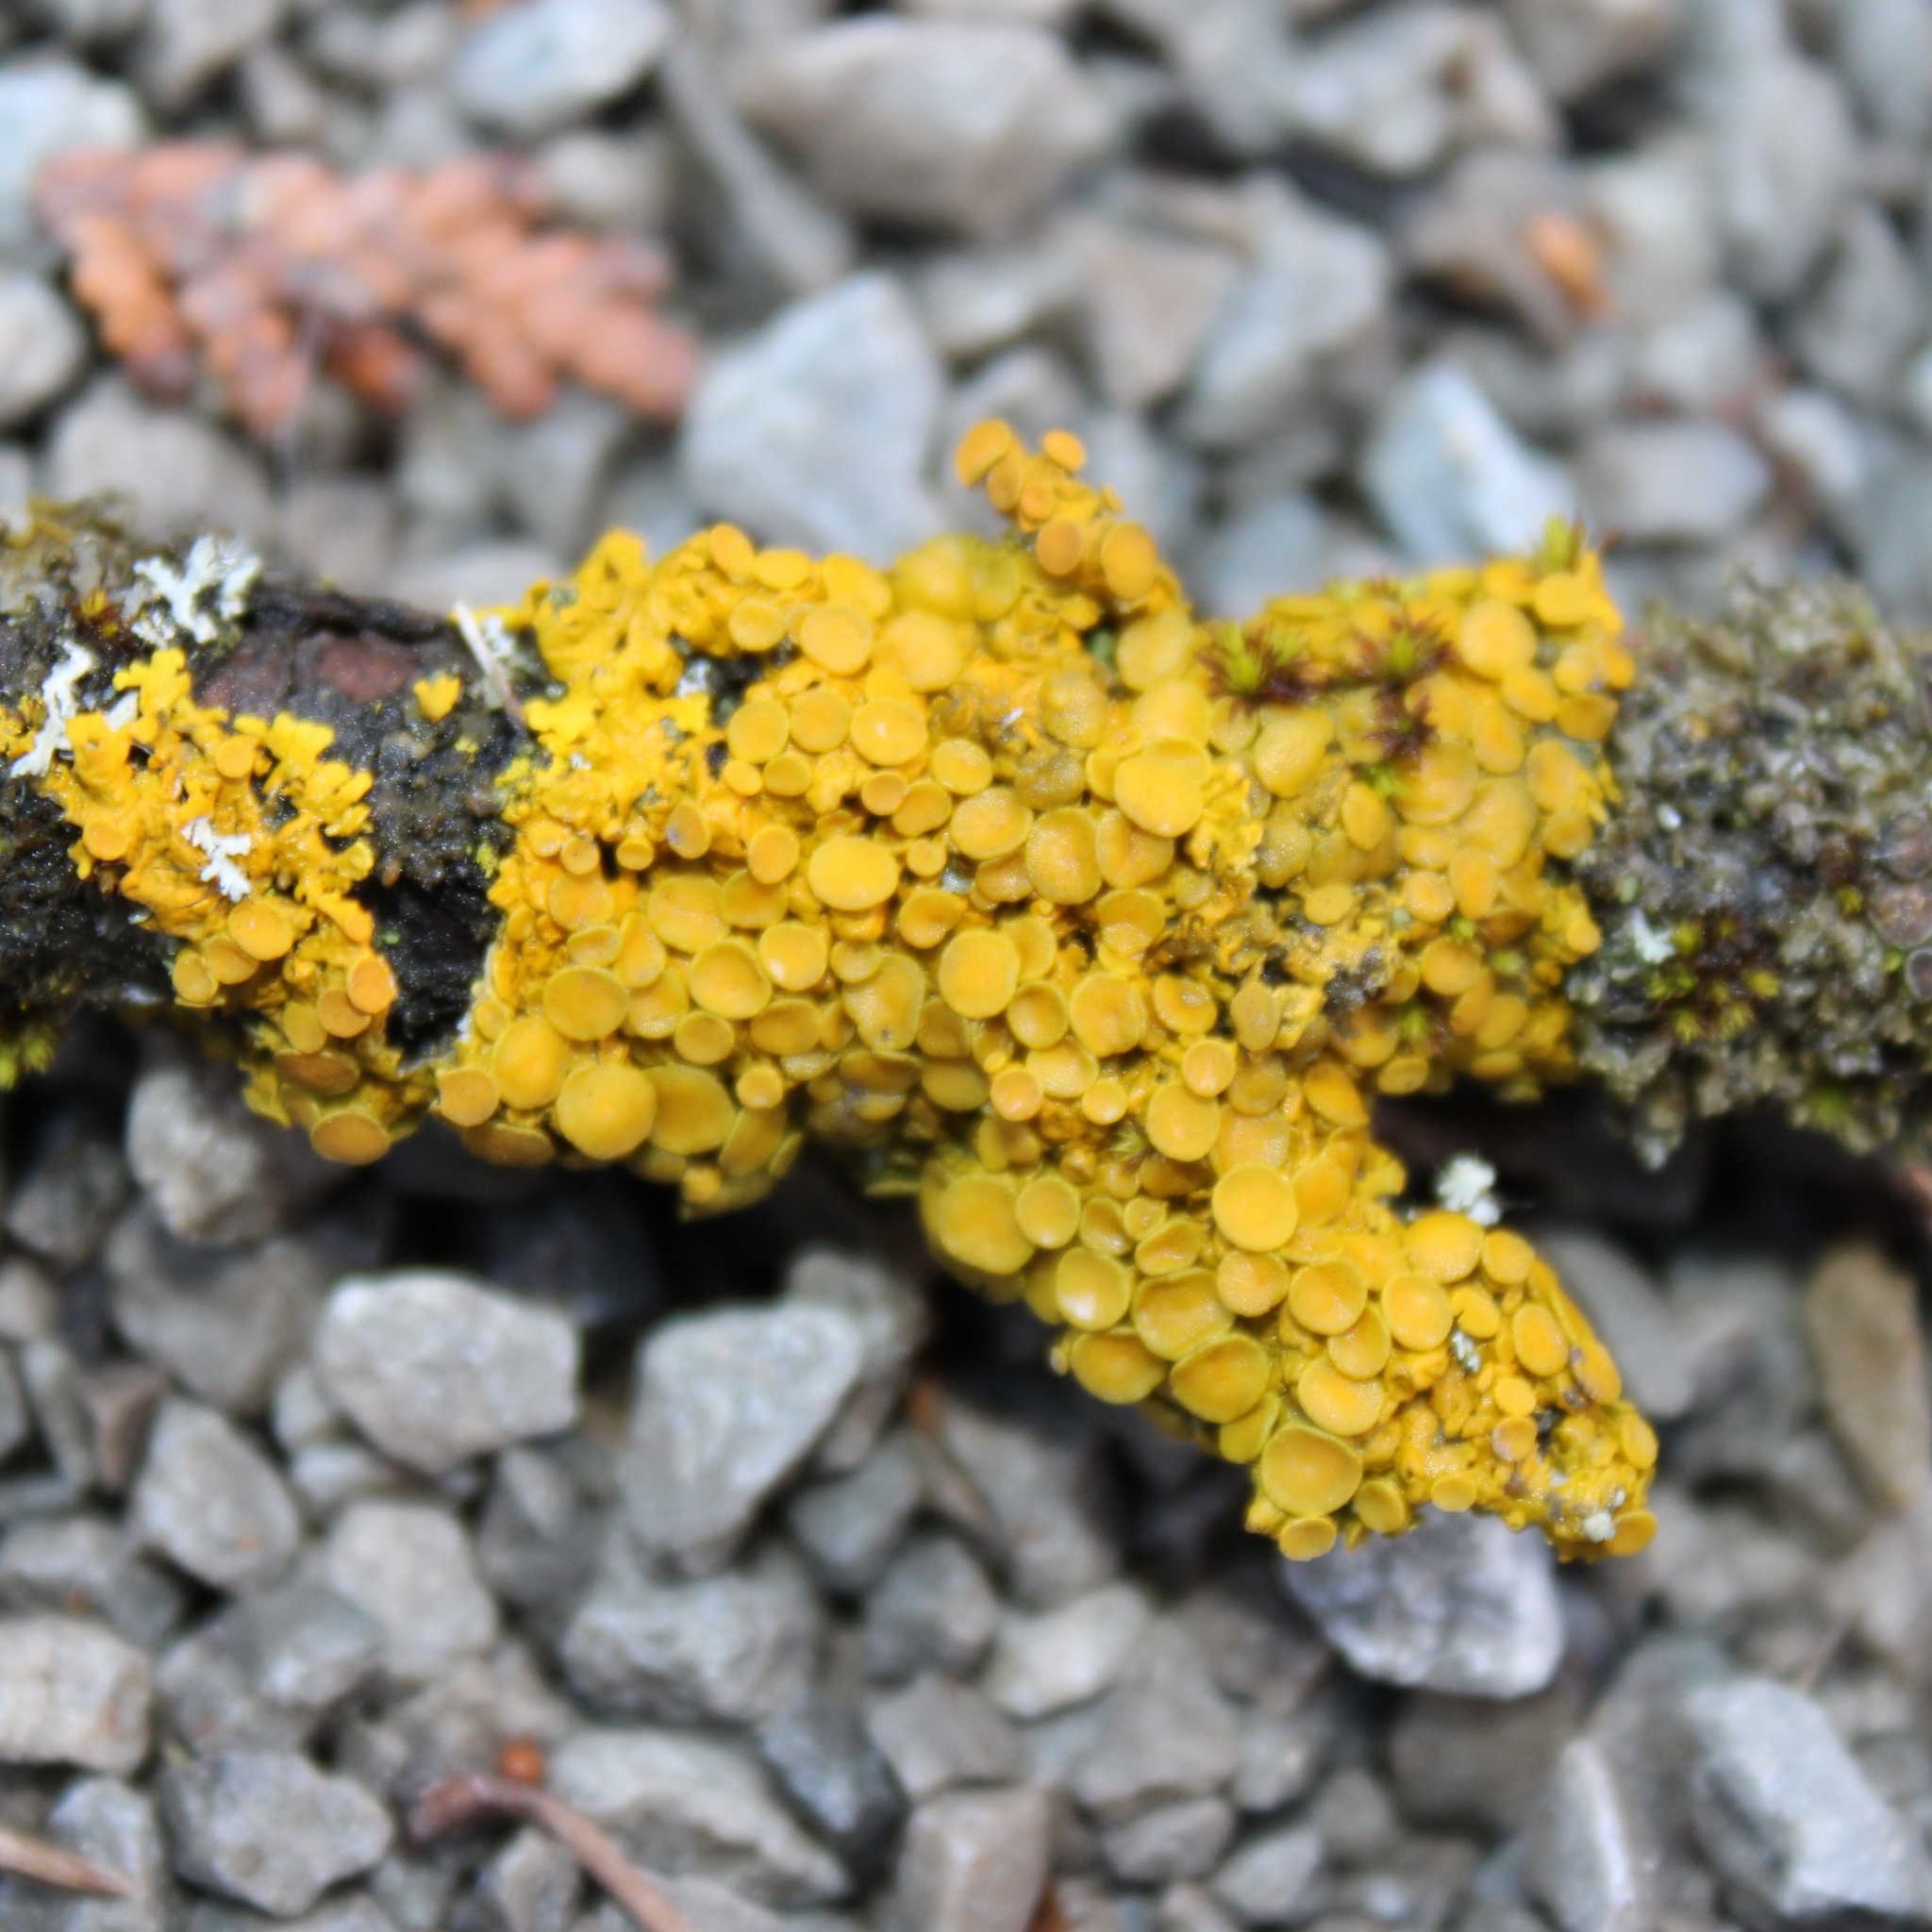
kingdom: Fungi
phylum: Ascomycota
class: Lecanoromycetes
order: Teloschistales
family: Teloschistaceae
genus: Xanthoria
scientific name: Xanthoria parietina
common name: Common orange lichen
